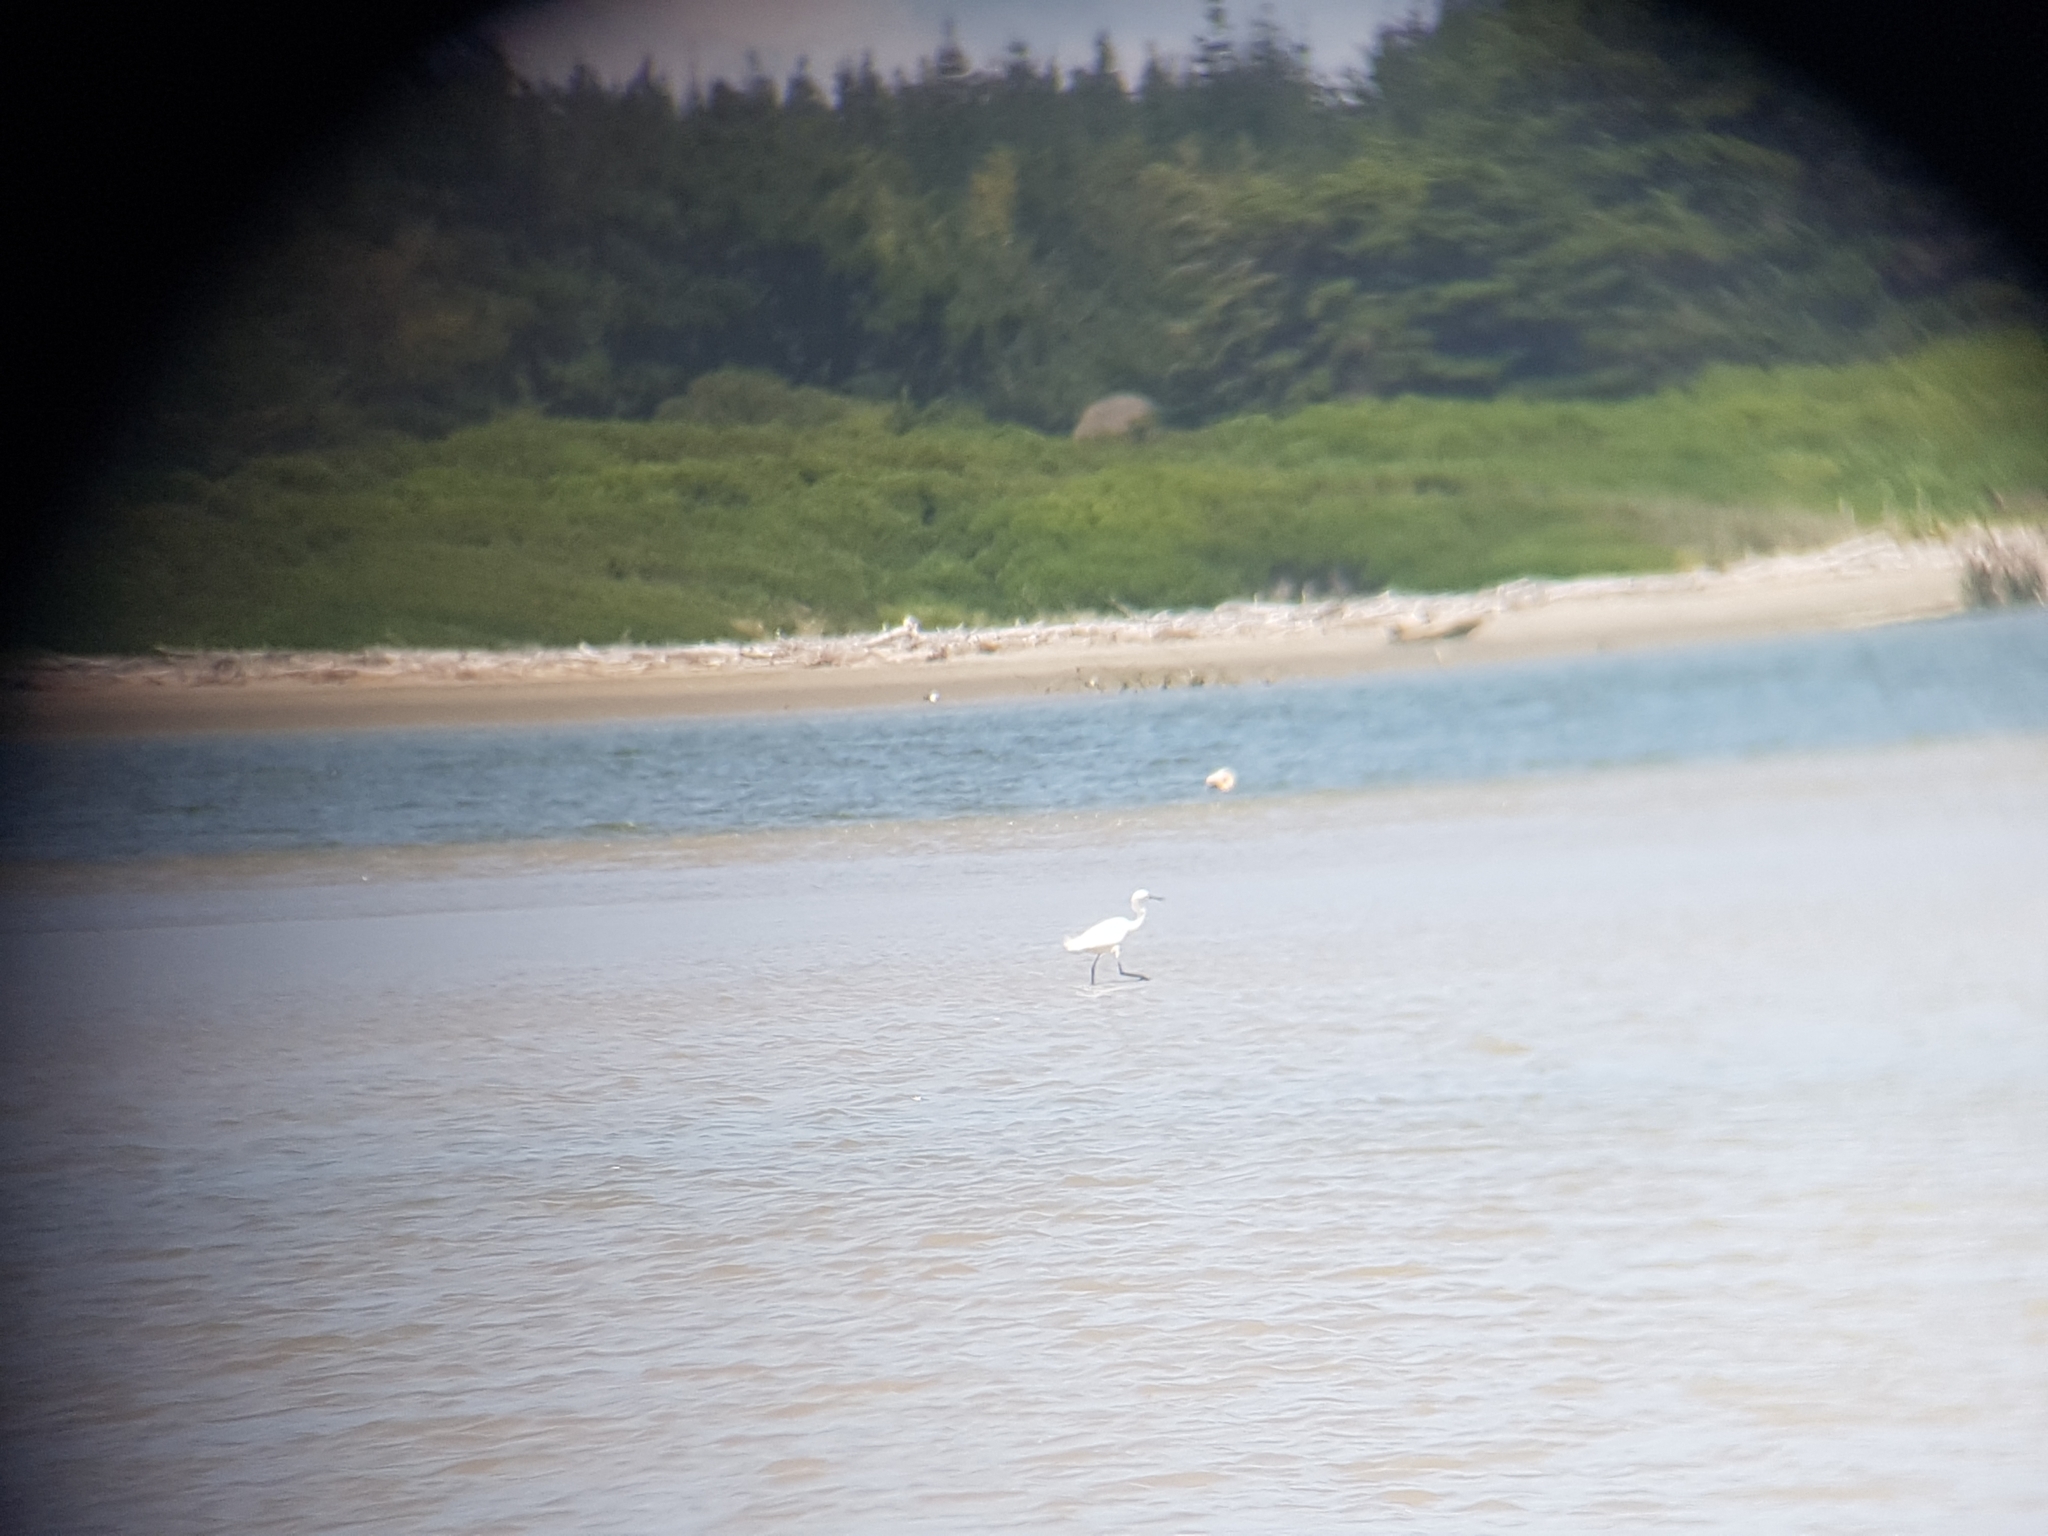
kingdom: Animalia
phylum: Chordata
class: Aves
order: Pelecaniformes
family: Ardeidae
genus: Egretta
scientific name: Egretta garzetta
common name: Little egret
